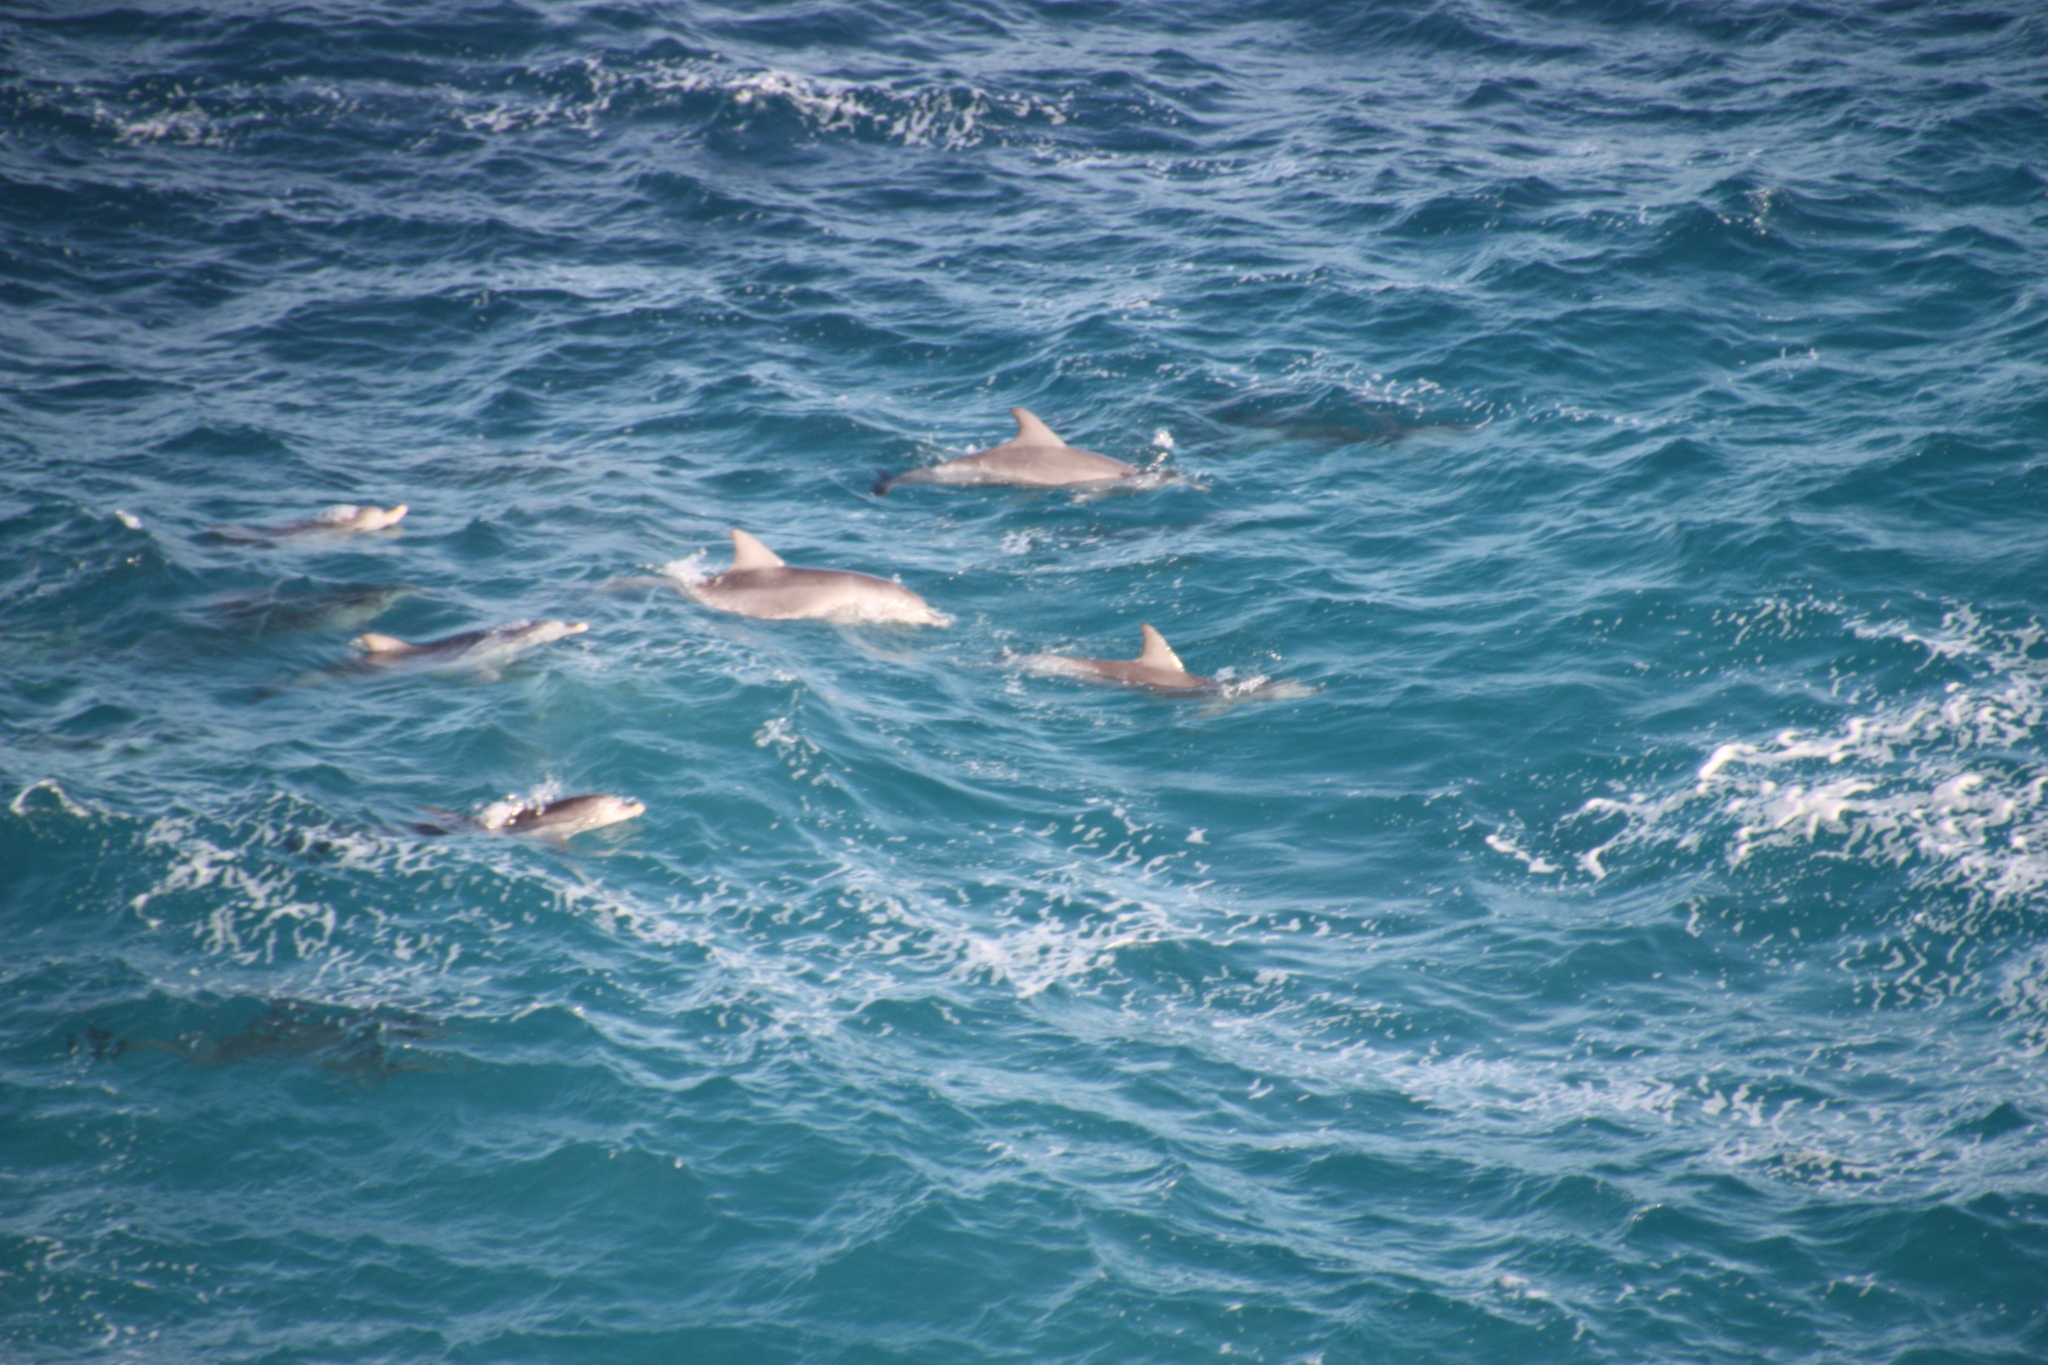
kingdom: Animalia
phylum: Chordata
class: Mammalia
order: Cetacea
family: Delphinidae
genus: Tursiops
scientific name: Tursiops aduncus
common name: Indo-pacific bottlenose dolphin
